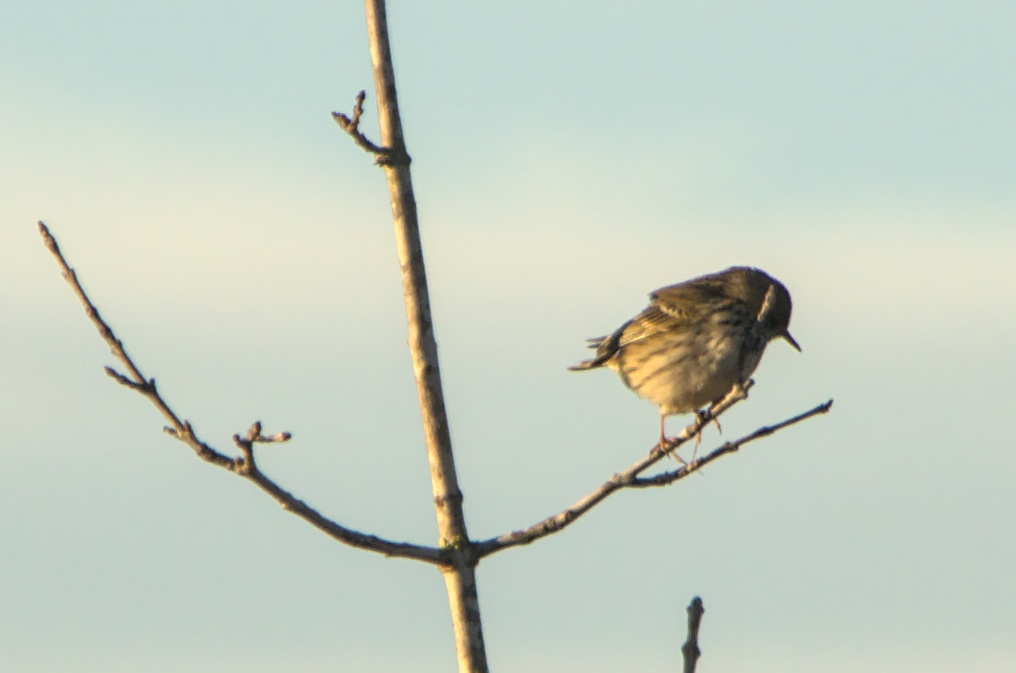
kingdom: Animalia
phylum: Chordata
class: Aves
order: Passeriformes
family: Motacillidae
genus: Anthus
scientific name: Anthus pratensis
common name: Meadow pipit
